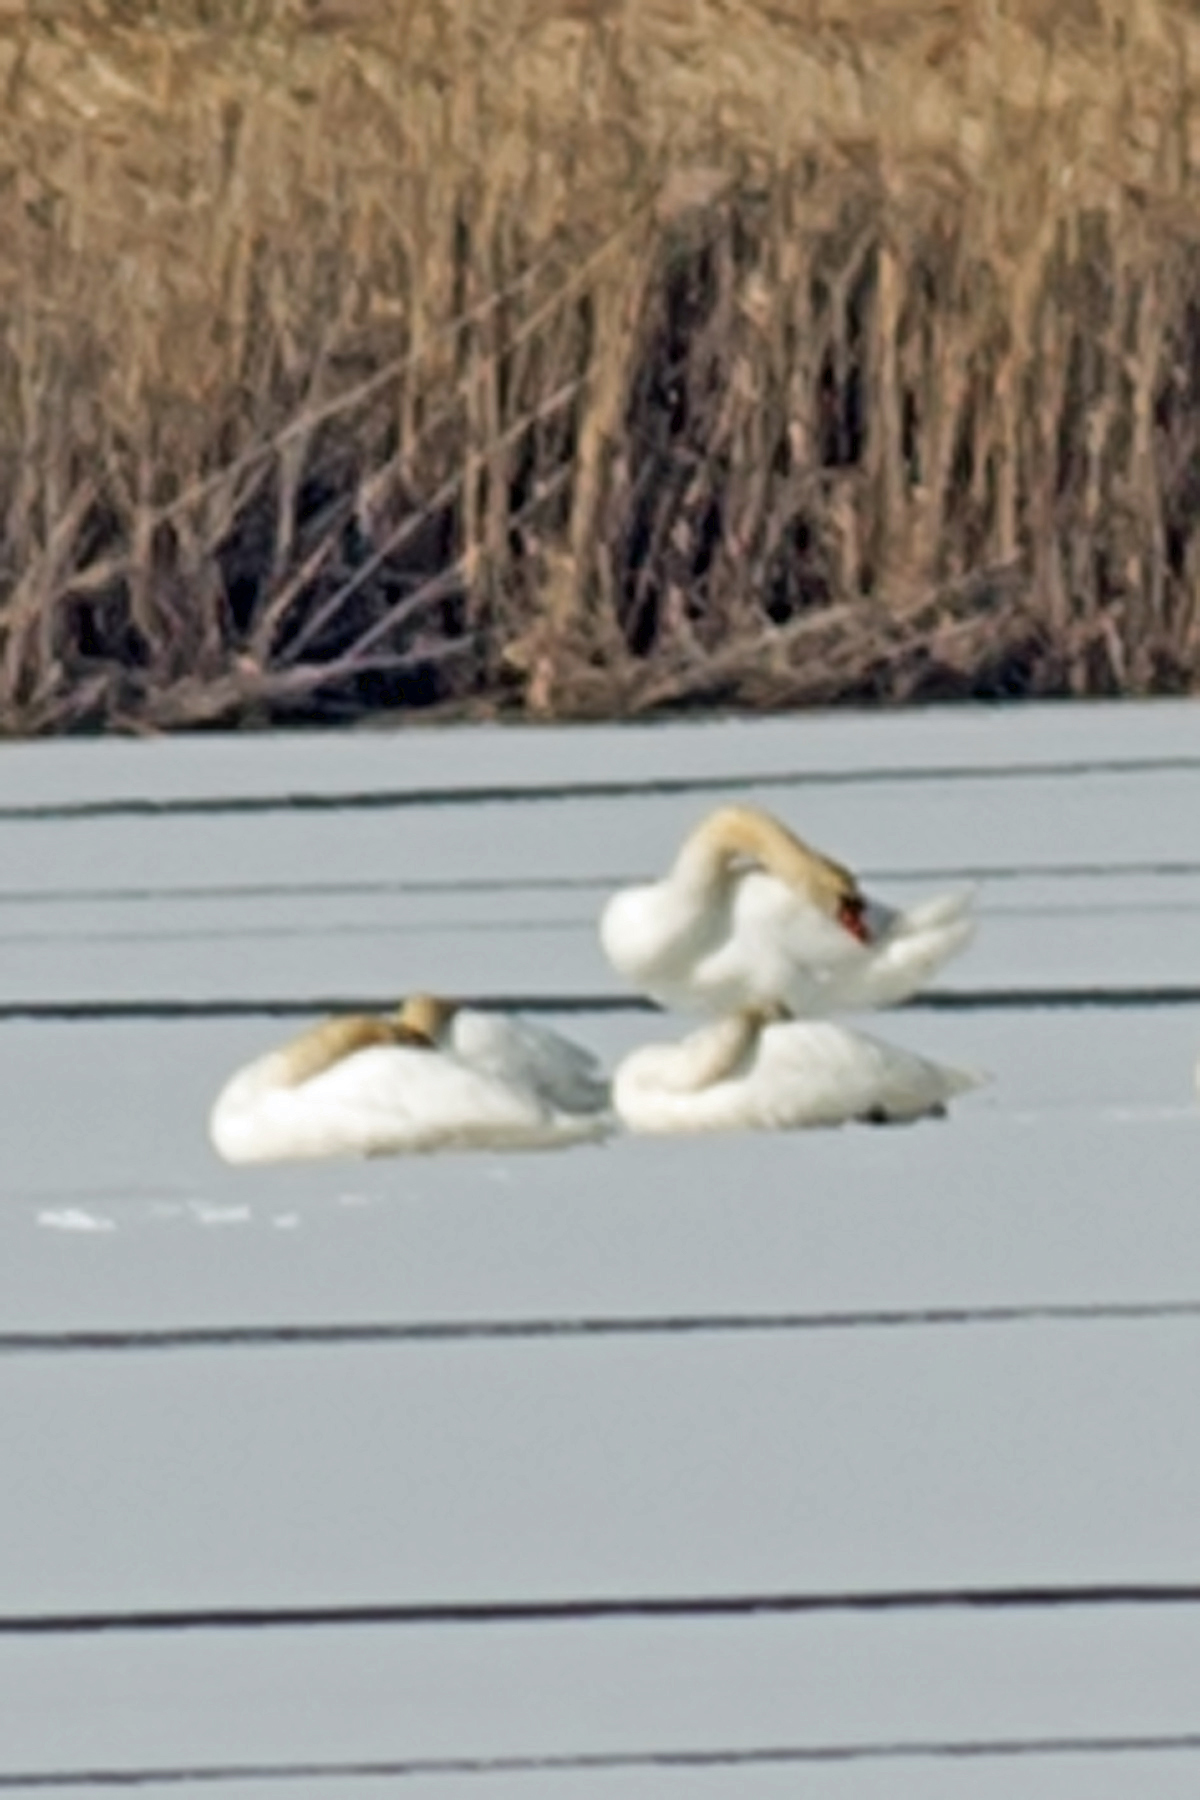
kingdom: Animalia
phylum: Chordata
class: Aves
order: Anseriformes
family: Anatidae
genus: Cygnus
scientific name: Cygnus olor
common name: Mute swan
